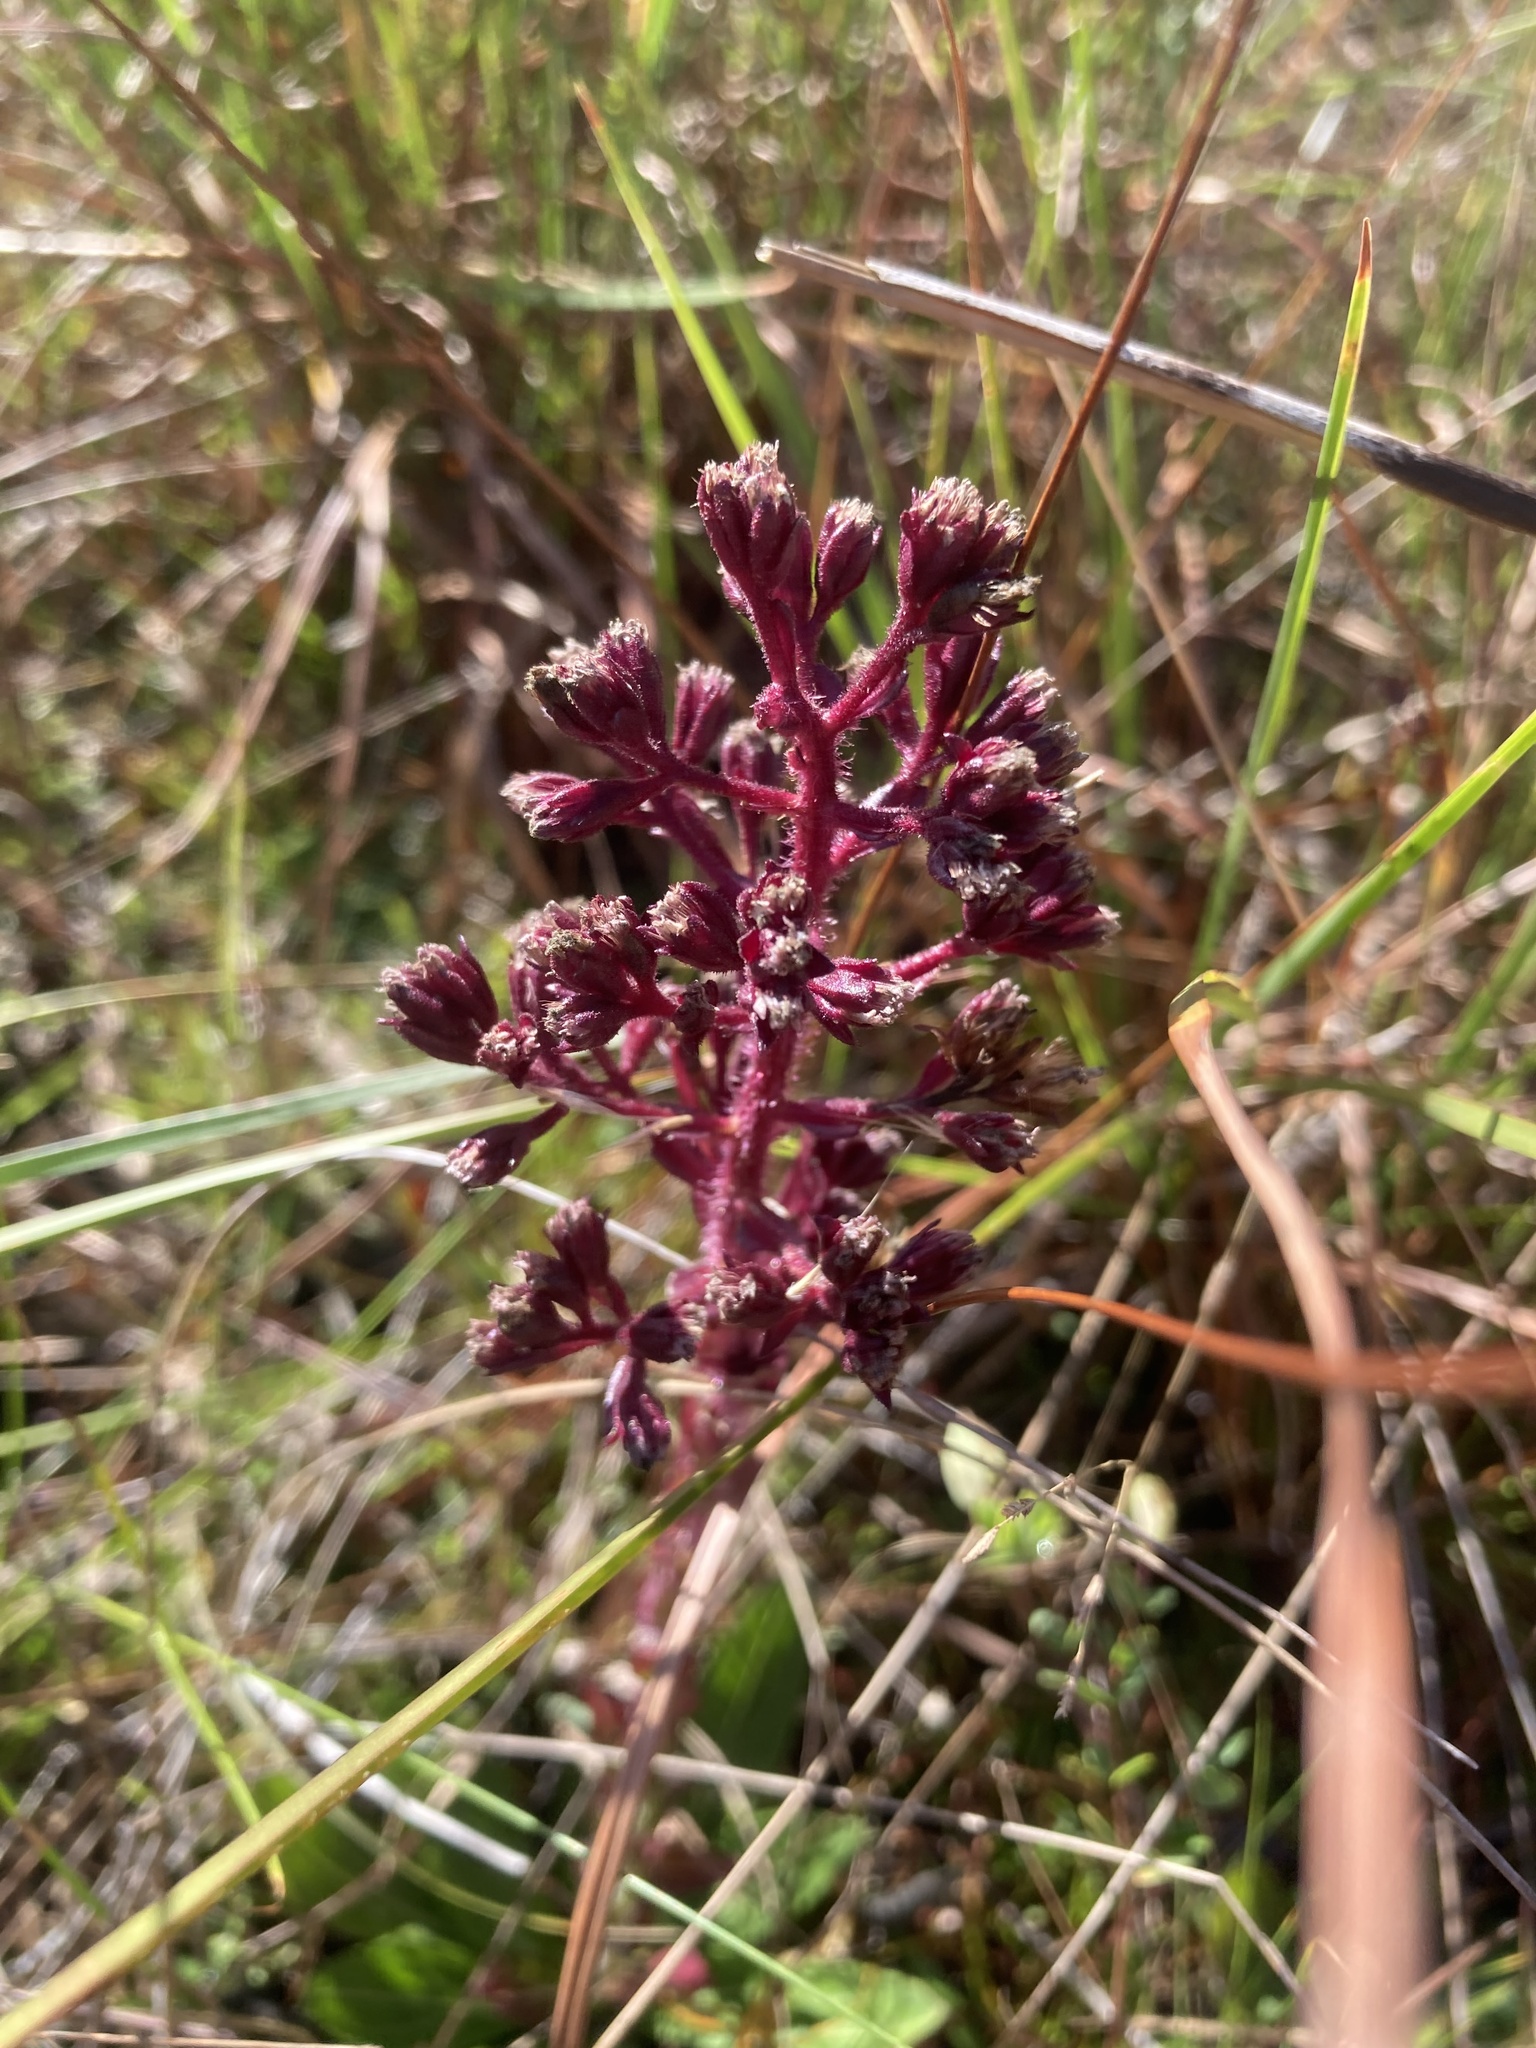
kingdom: Plantae
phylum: Tracheophyta
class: Magnoliopsida
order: Asterales
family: Asteraceae
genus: Carphephorus
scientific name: Carphephorus paniculatus
